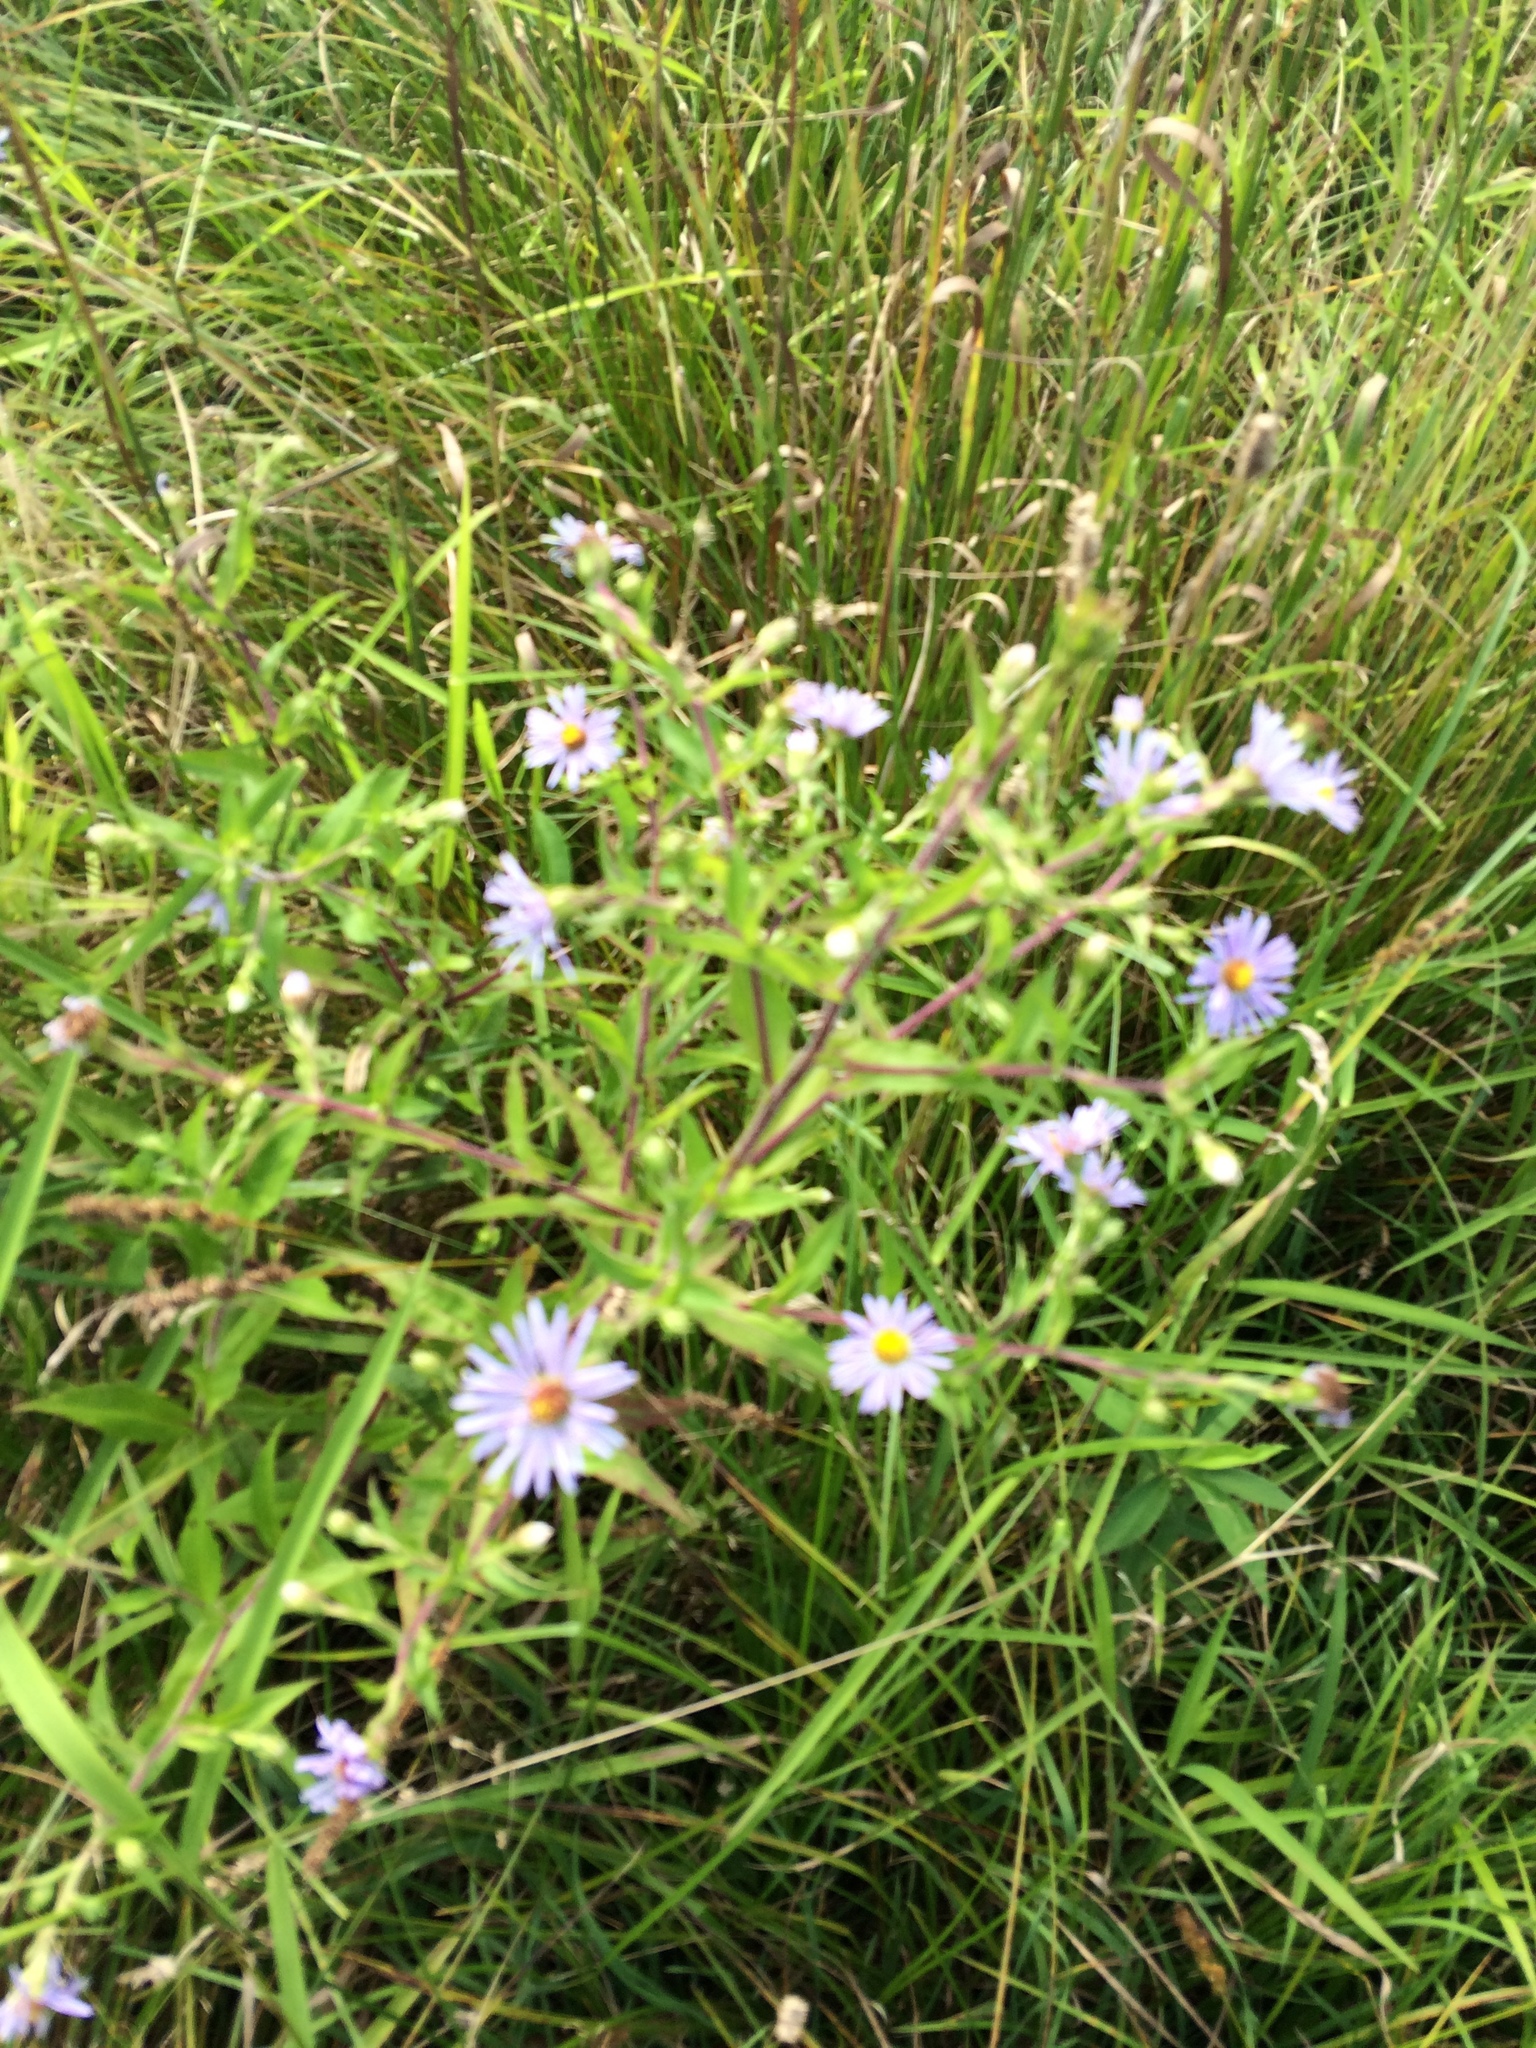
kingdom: Plantae
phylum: Tracheophyta
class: Magnoliopsida
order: Asterales
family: Asteraceae
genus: Symphyotrichum
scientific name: Symphyotrichum puniceum
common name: Bog aster
